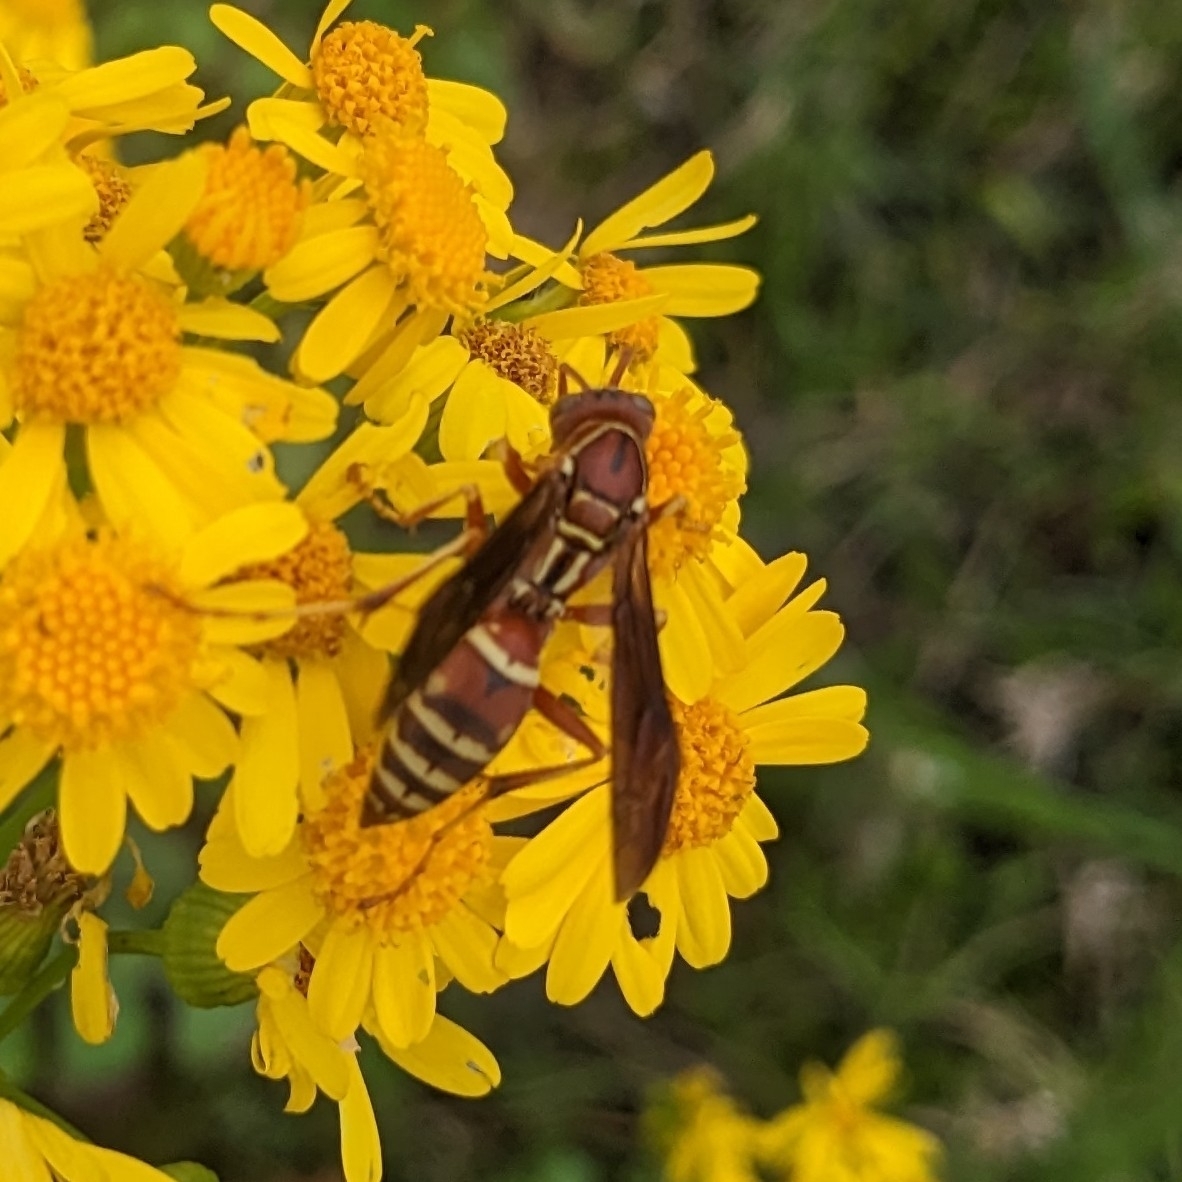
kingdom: Animalia
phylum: Arthropoda
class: Insecta
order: Hymenoptera
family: Eumenidae
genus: Polistes
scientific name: Polistes dorsalis
